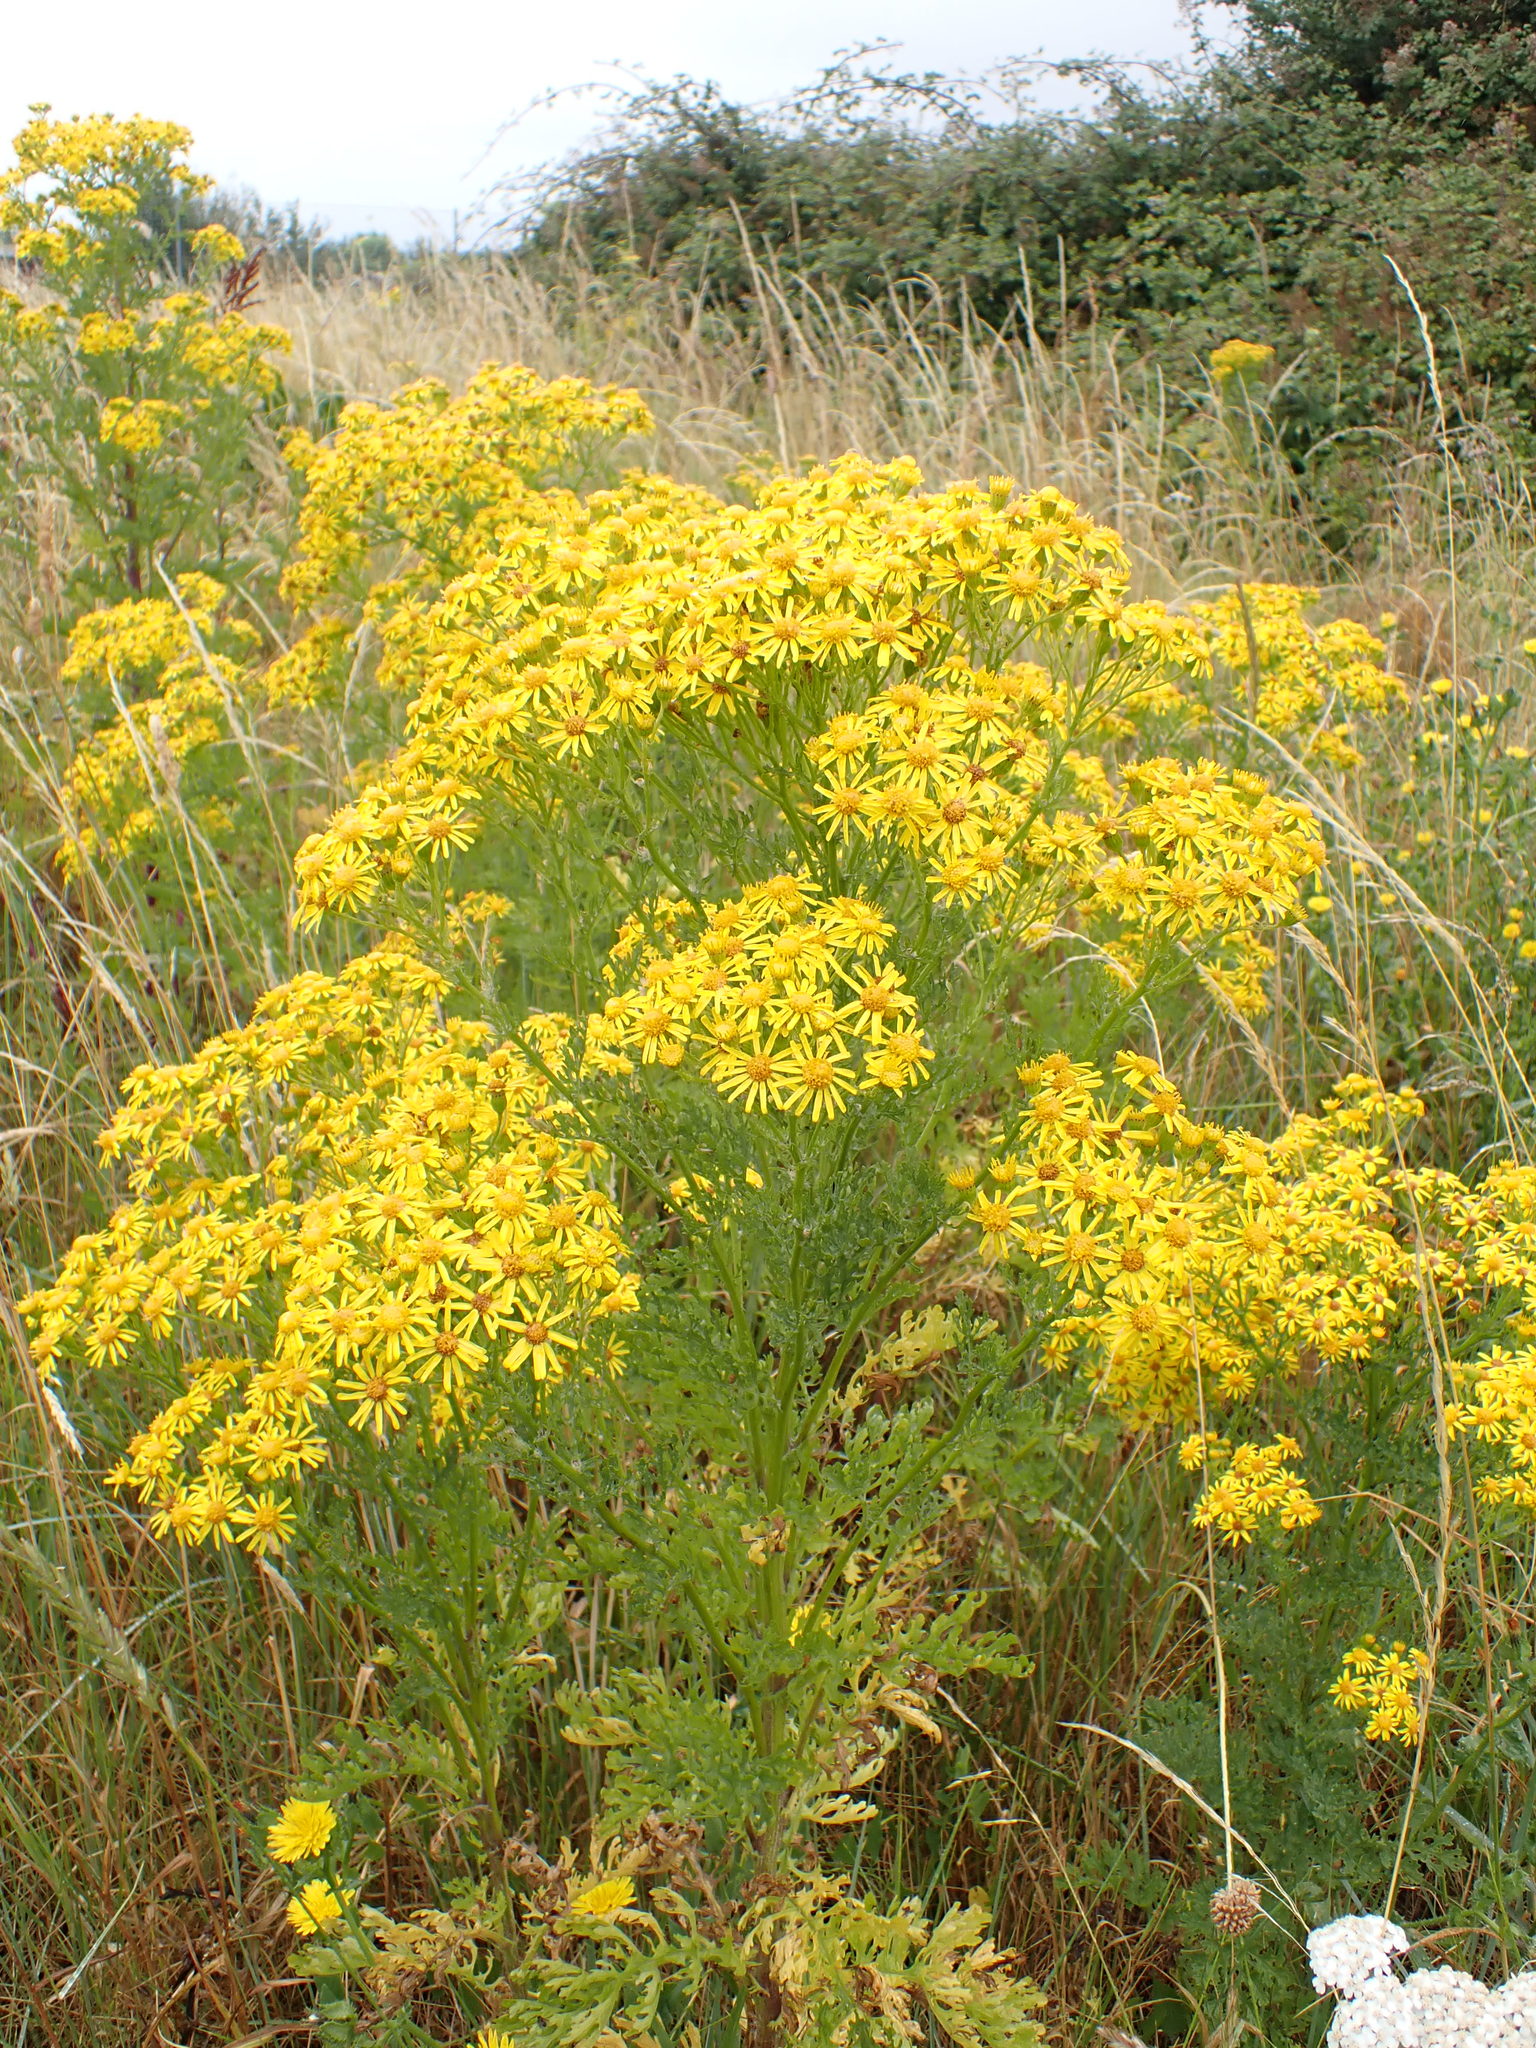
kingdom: Plantae
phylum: Tracheophyta
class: Magnoliopsida
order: Asterales
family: Asteraceae
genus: Jacobaea
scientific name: Jacobaea vulgaris
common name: Stinking willie
